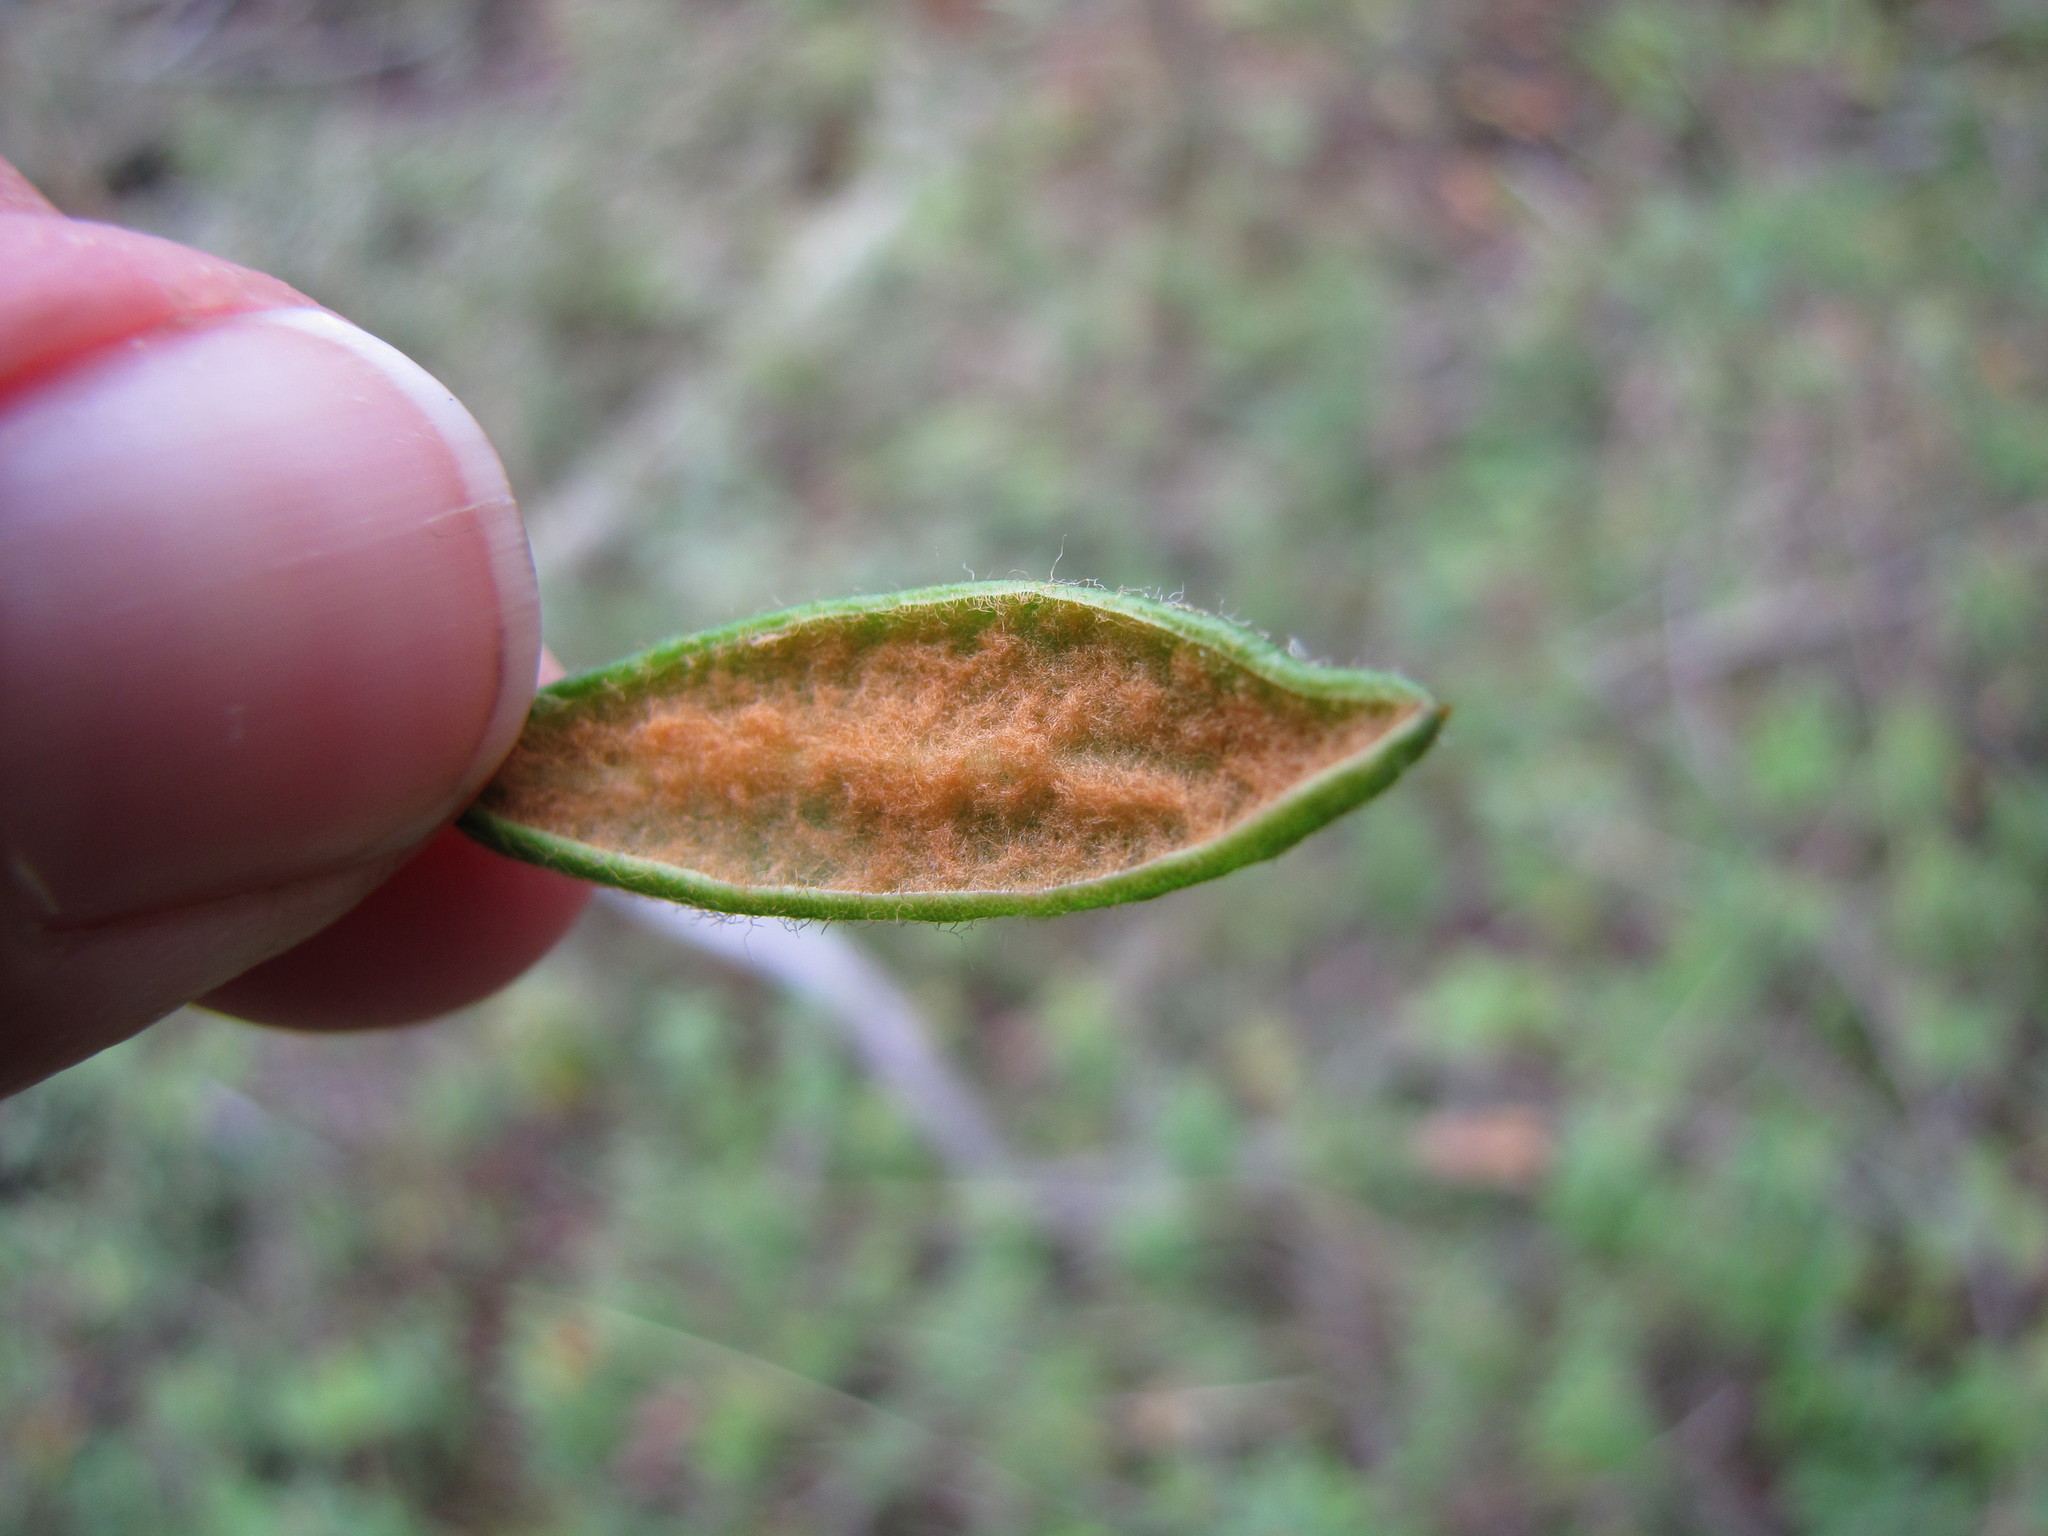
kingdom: Plantae
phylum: Tracheophyta
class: Magnoliopsida
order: Ericales
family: Ericaceae
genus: Rhododendron
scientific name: Rhododendron groenlandicum
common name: Bog labrador tea
